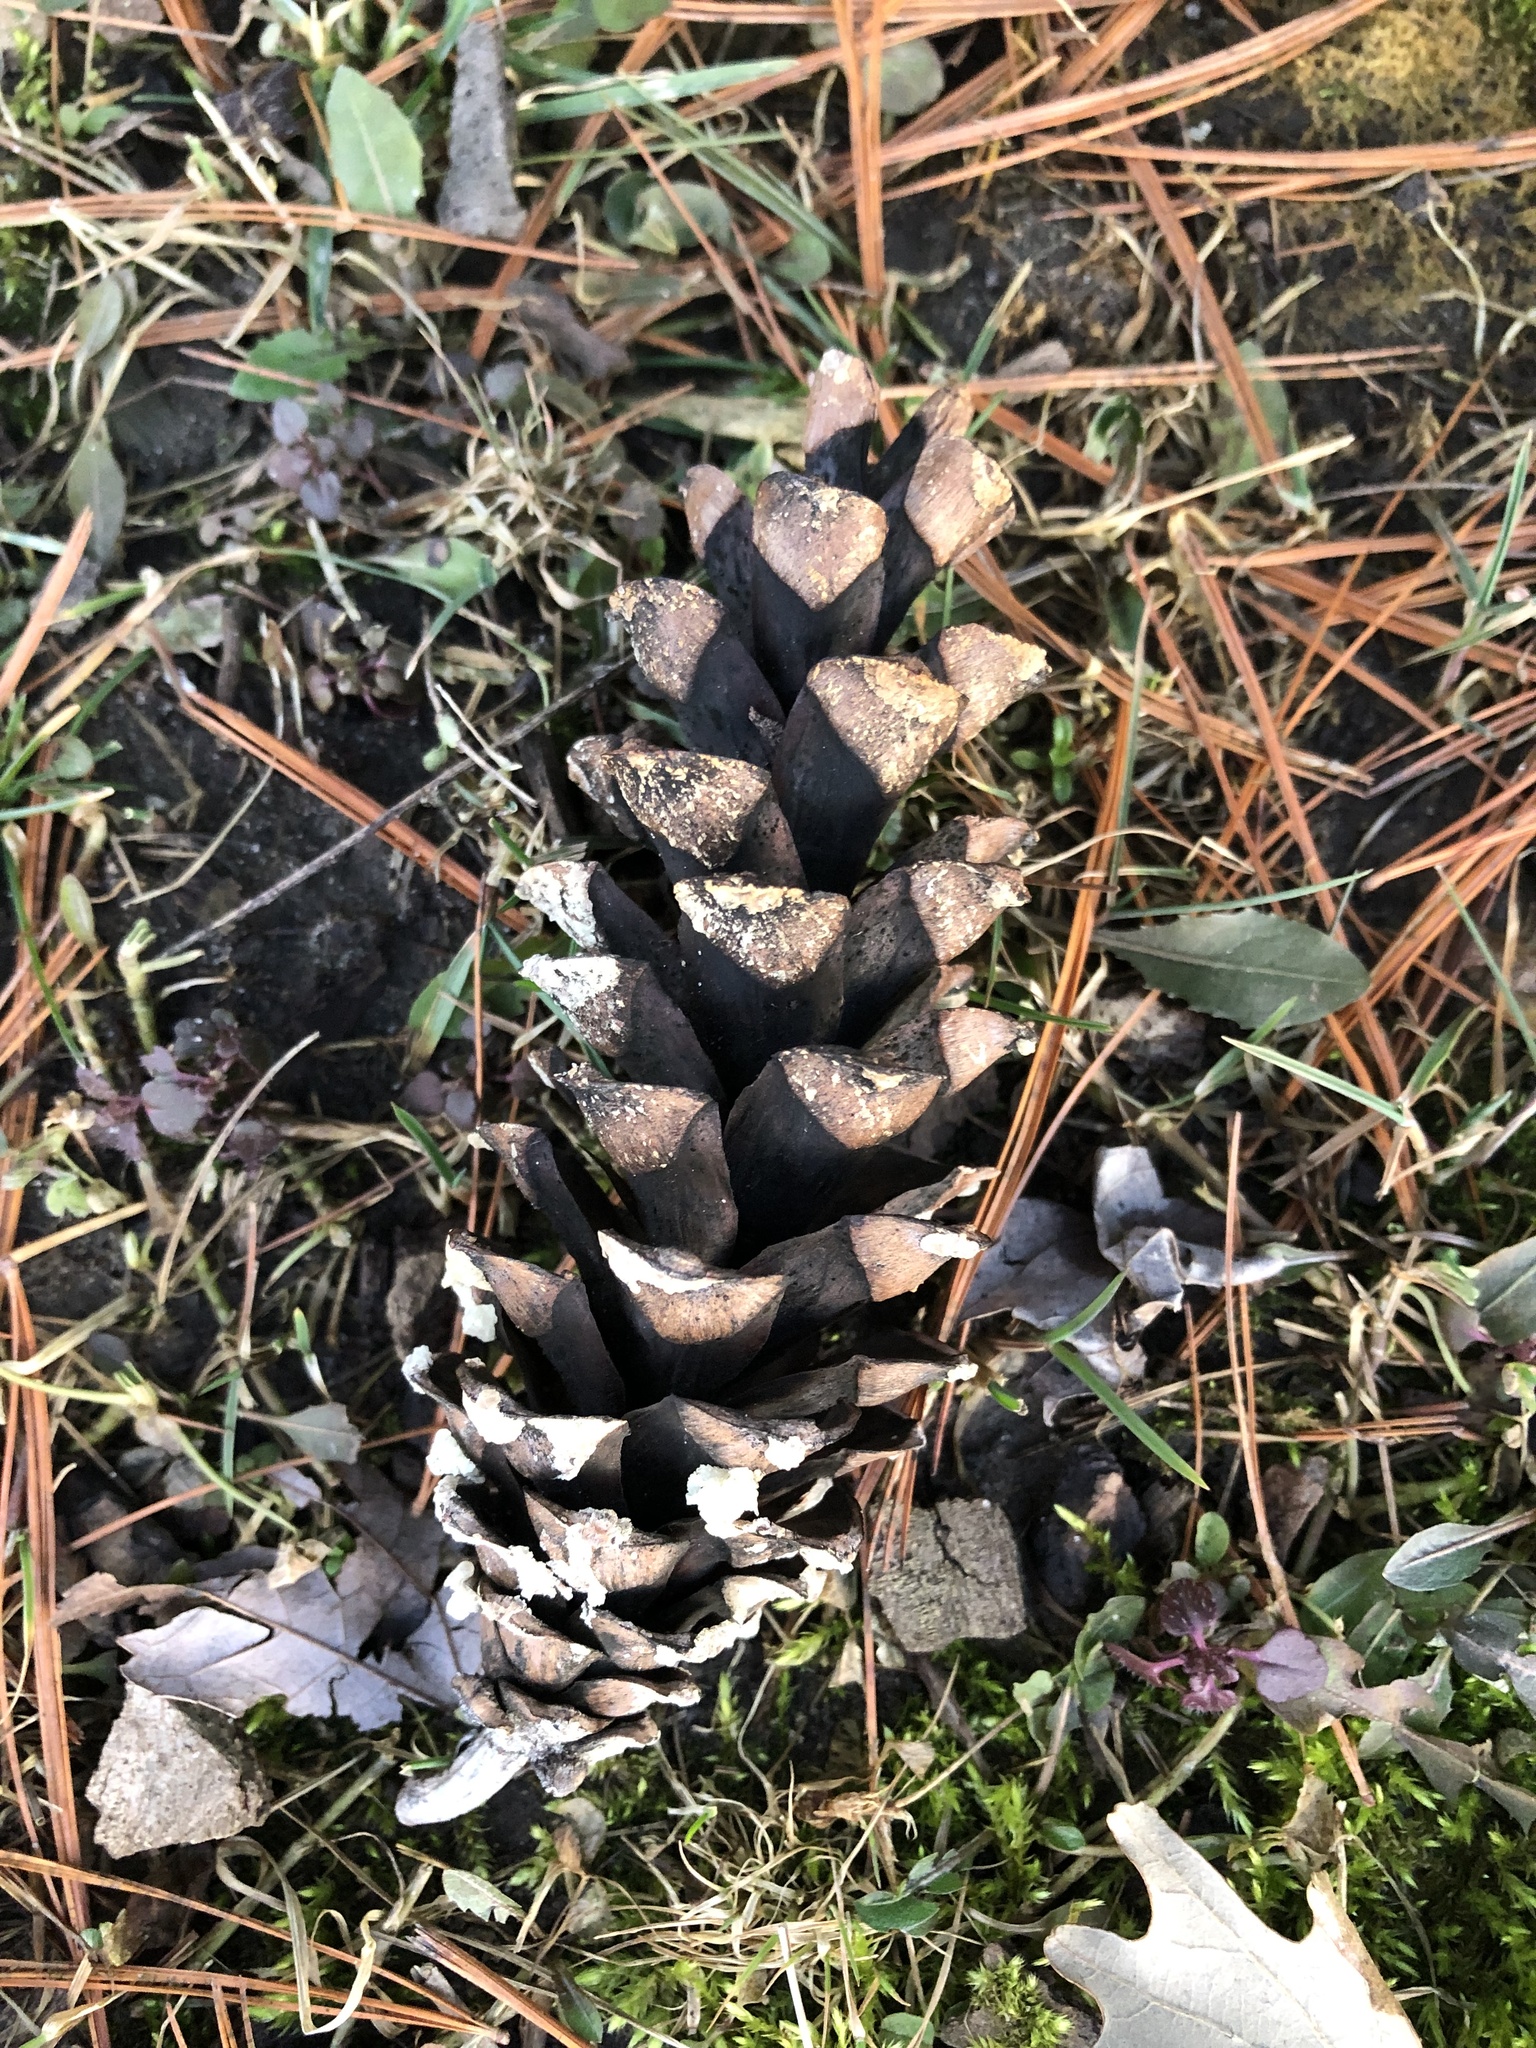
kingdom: Plantae
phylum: Tracheophyta
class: Pinopsida
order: Pinales
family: Pinaceae
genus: Pinus
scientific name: Pinus strobus
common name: Weymouth pine
